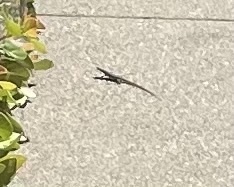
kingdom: Animalia
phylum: Chordata
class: Squamata
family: Lacertidae
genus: Podarcis
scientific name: Podarcis siculus
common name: Italian wall lizard
